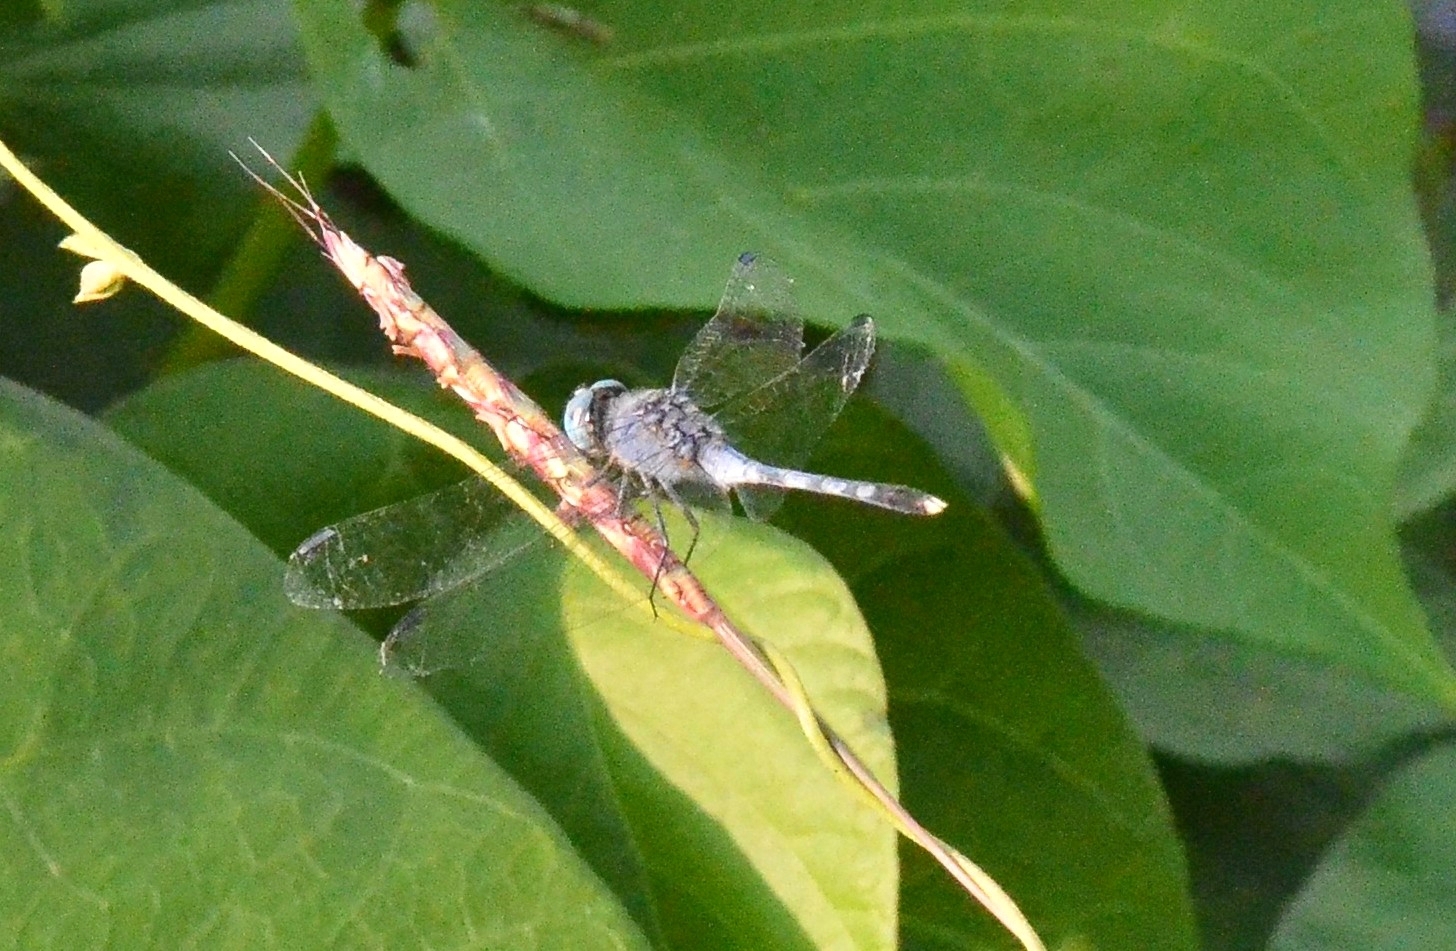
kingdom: Animalia
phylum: Arthropoda
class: Insecta
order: Odonata
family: Libellulidae
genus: Diplacodes
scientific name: Diplacodes trivialis
